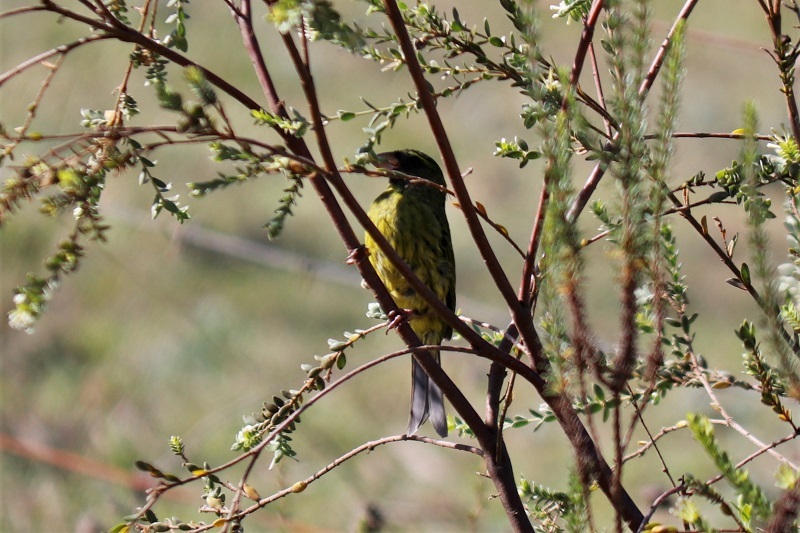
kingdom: Animalia
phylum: Chordata
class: Aves
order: Passeriformes
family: Fringillidae
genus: Crithagra
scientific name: Crithagra scotops
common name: Forest canary
